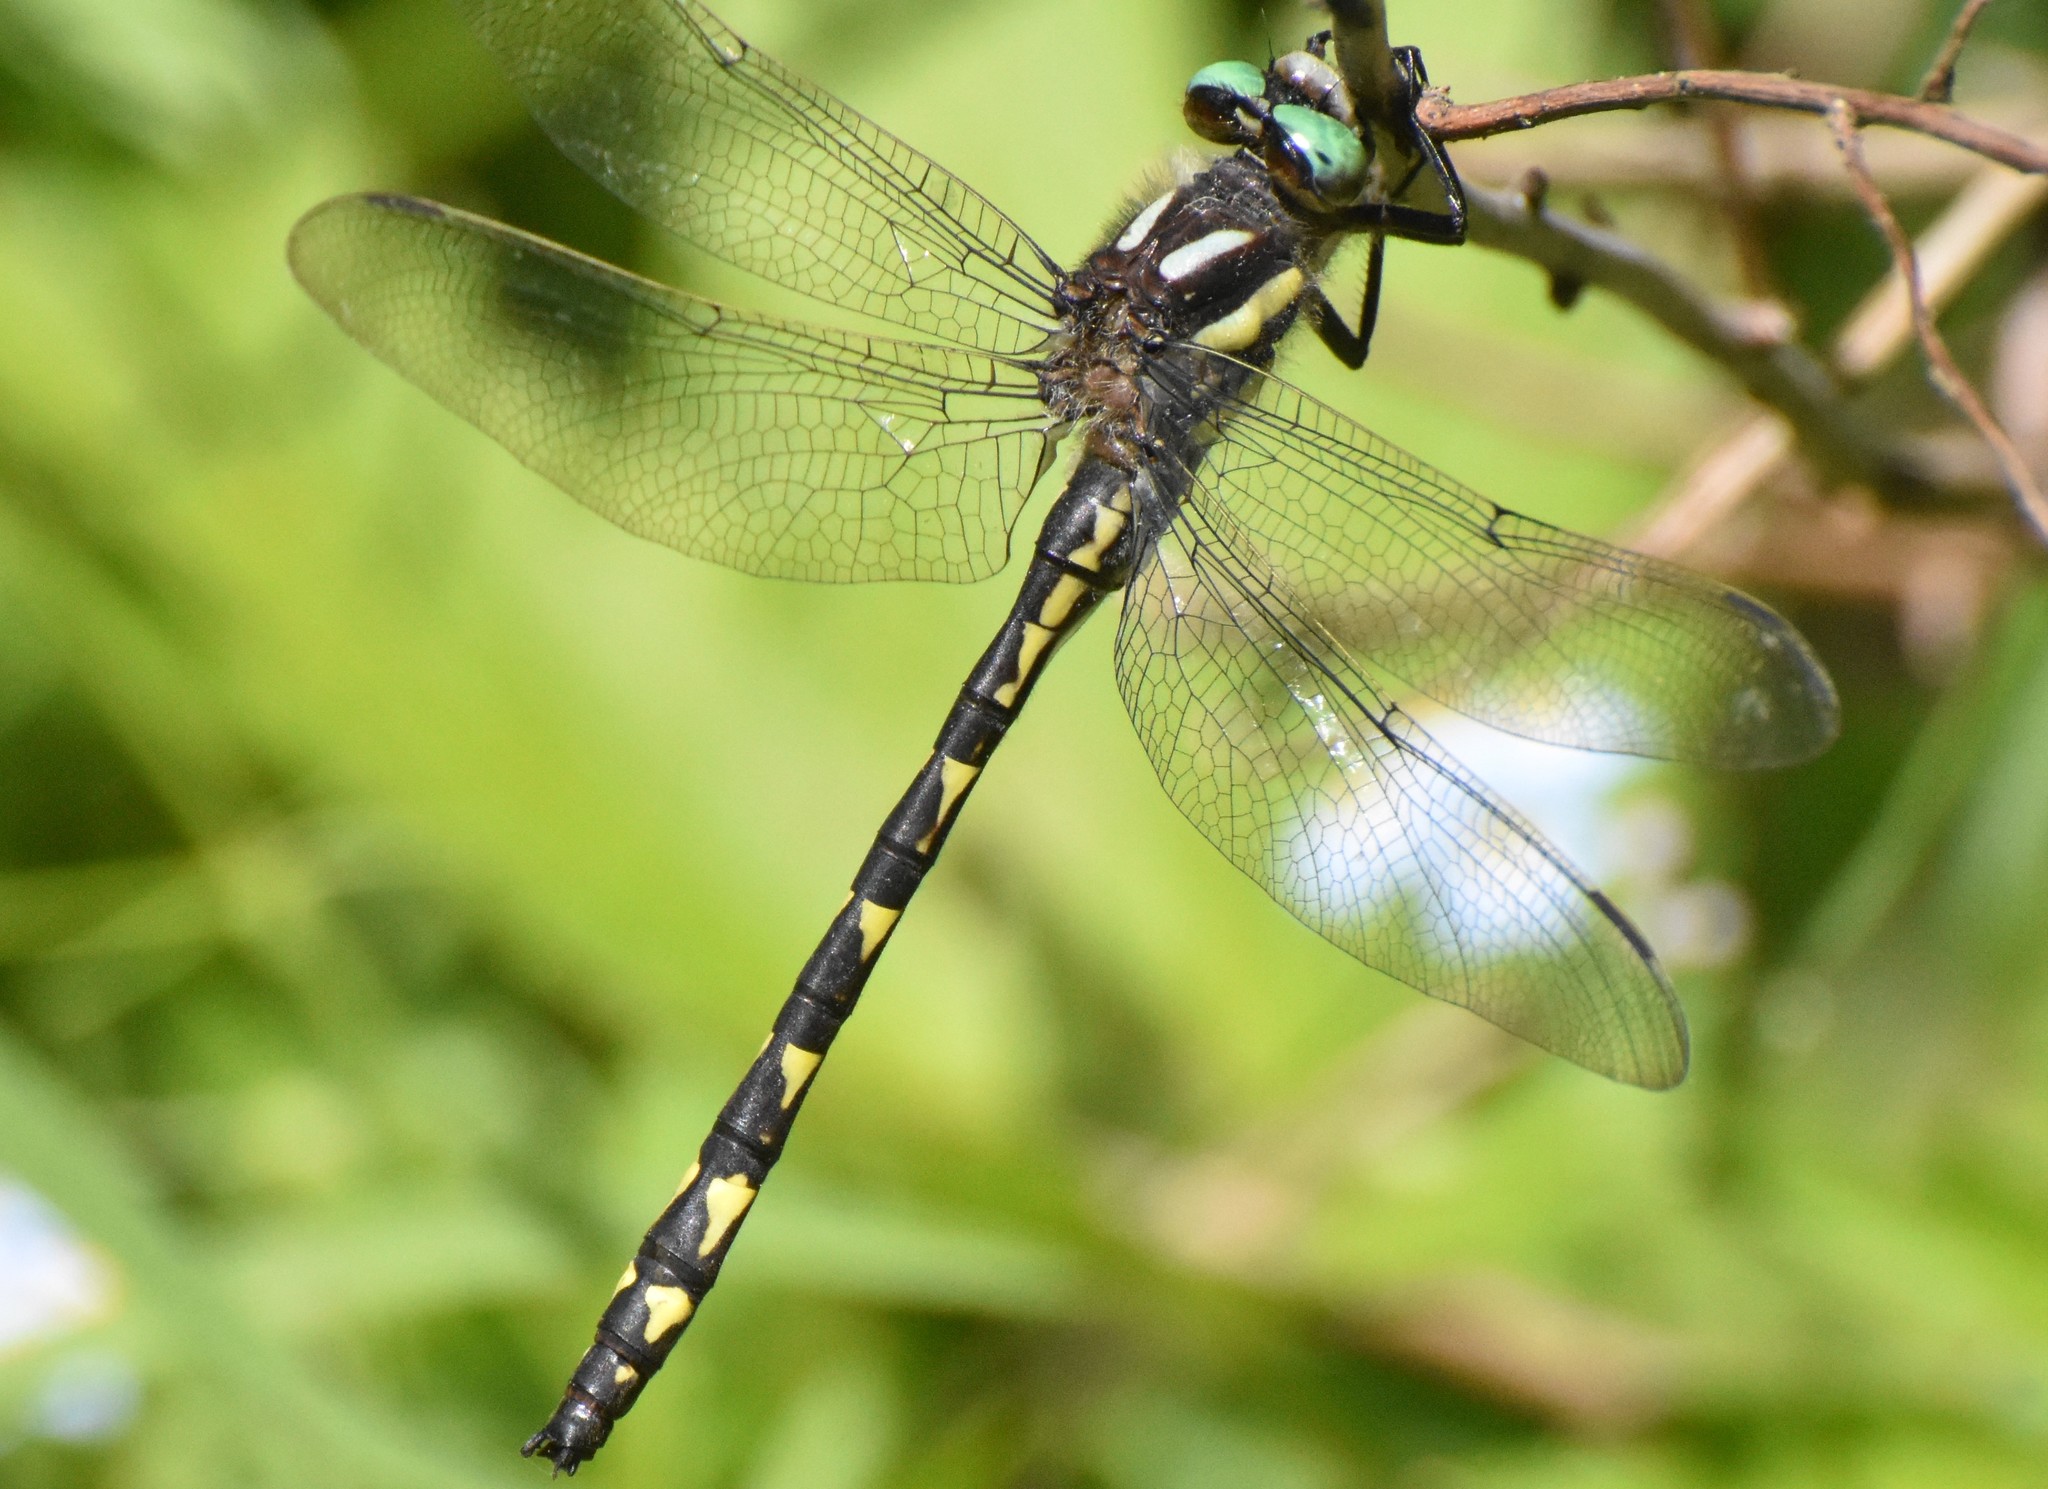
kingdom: Animalia
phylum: Arthropoda
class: Insecta
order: Odonata
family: Cordulegastridae
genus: Cordulegaster
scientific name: Cordulegaster diastatops
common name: Delta-spotted spiketail
